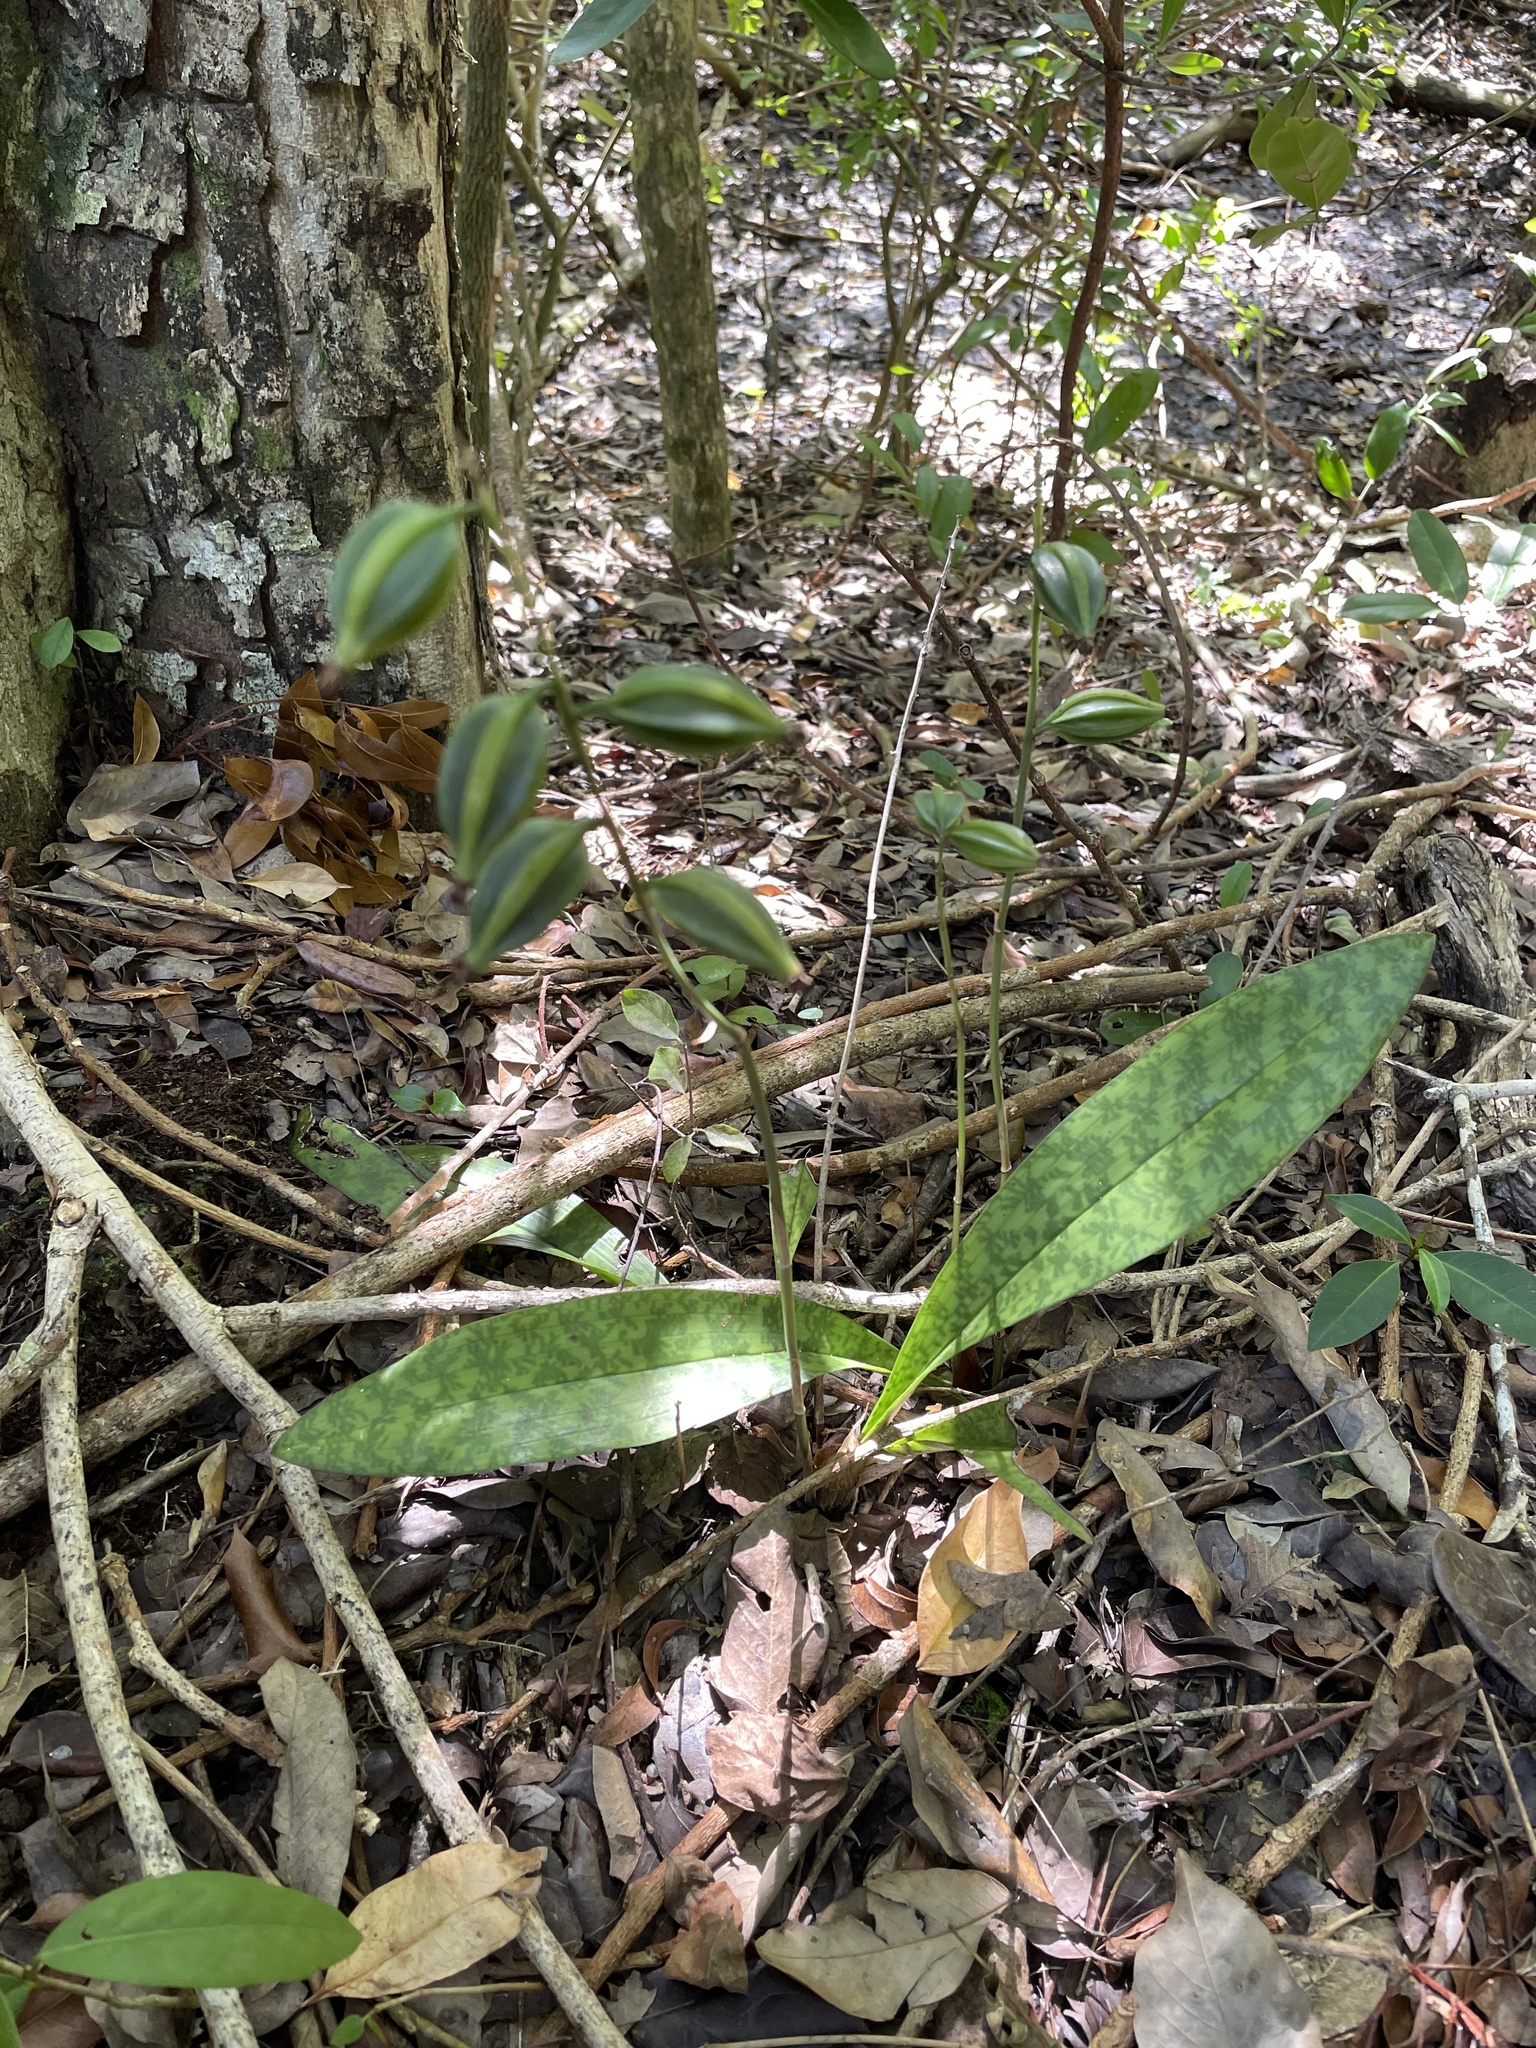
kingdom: Plantae
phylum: Tracheophyta
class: Liliopsida
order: Asparagales
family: Orchidaceae
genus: Eulophia
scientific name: Eulophia maculata
